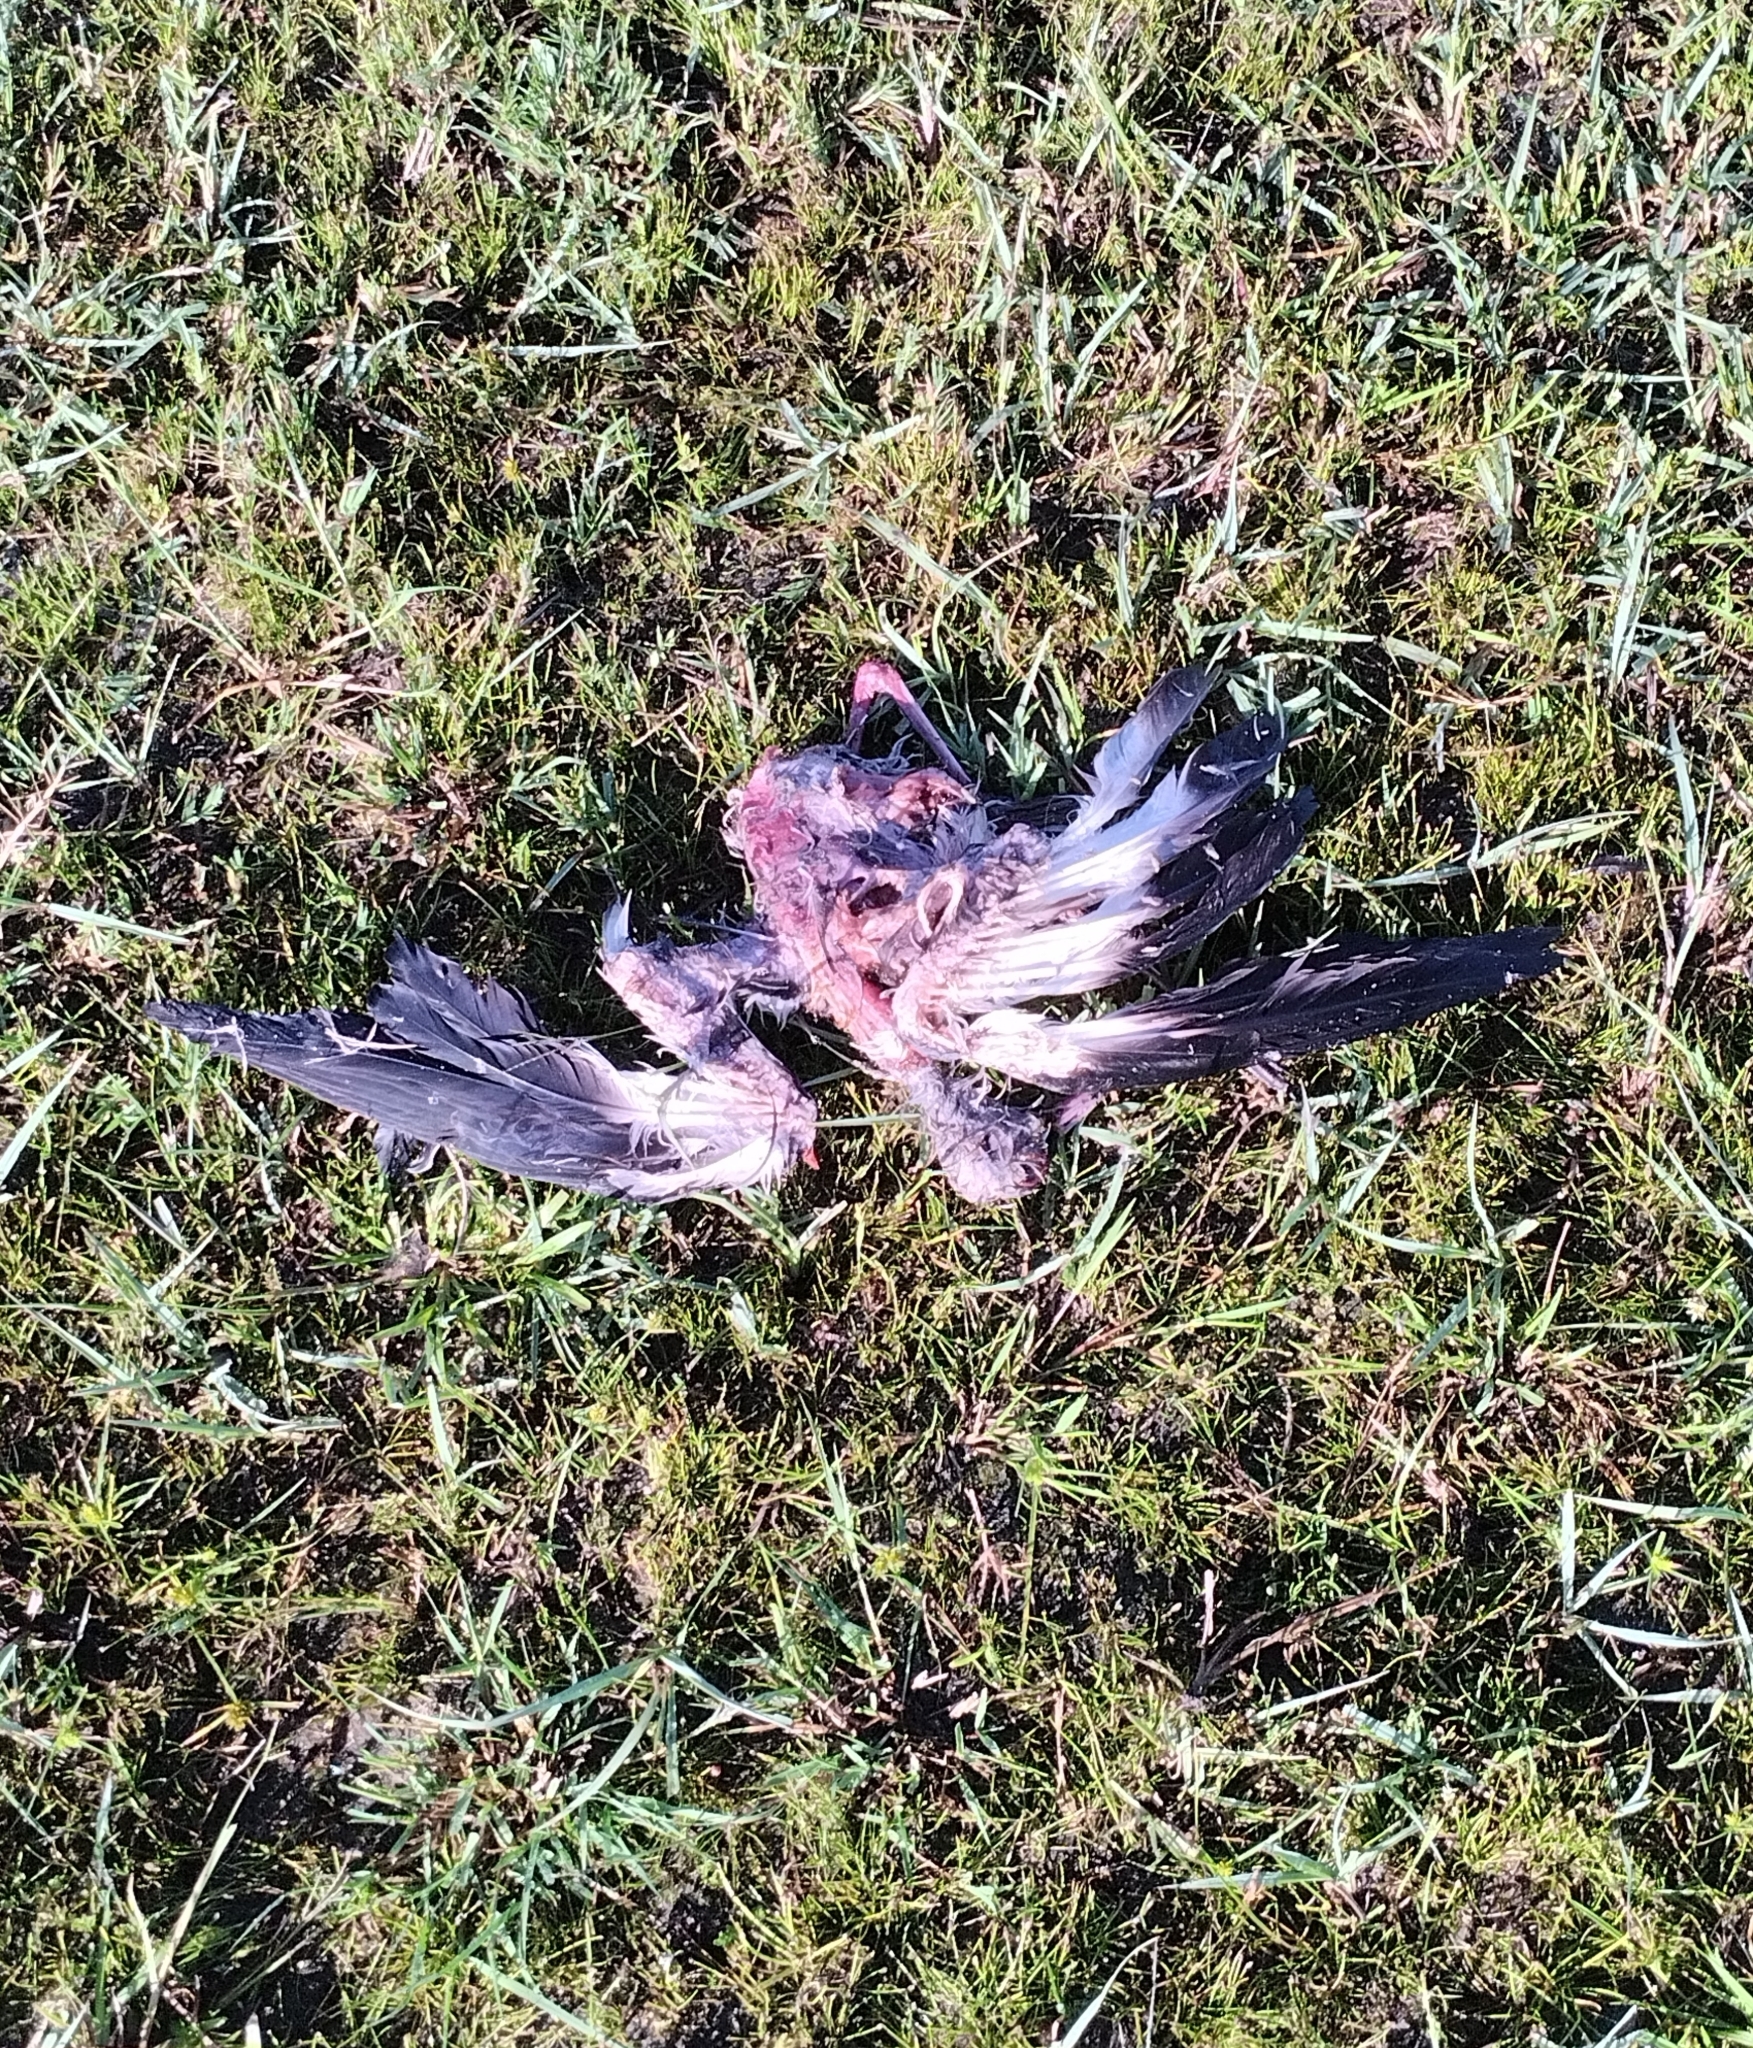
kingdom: Animalia
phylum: Chordata
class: Aves
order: Charadriiformes
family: Charadriidae
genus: Vanellus
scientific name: Vanellus chilensis
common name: Southern lapwing
